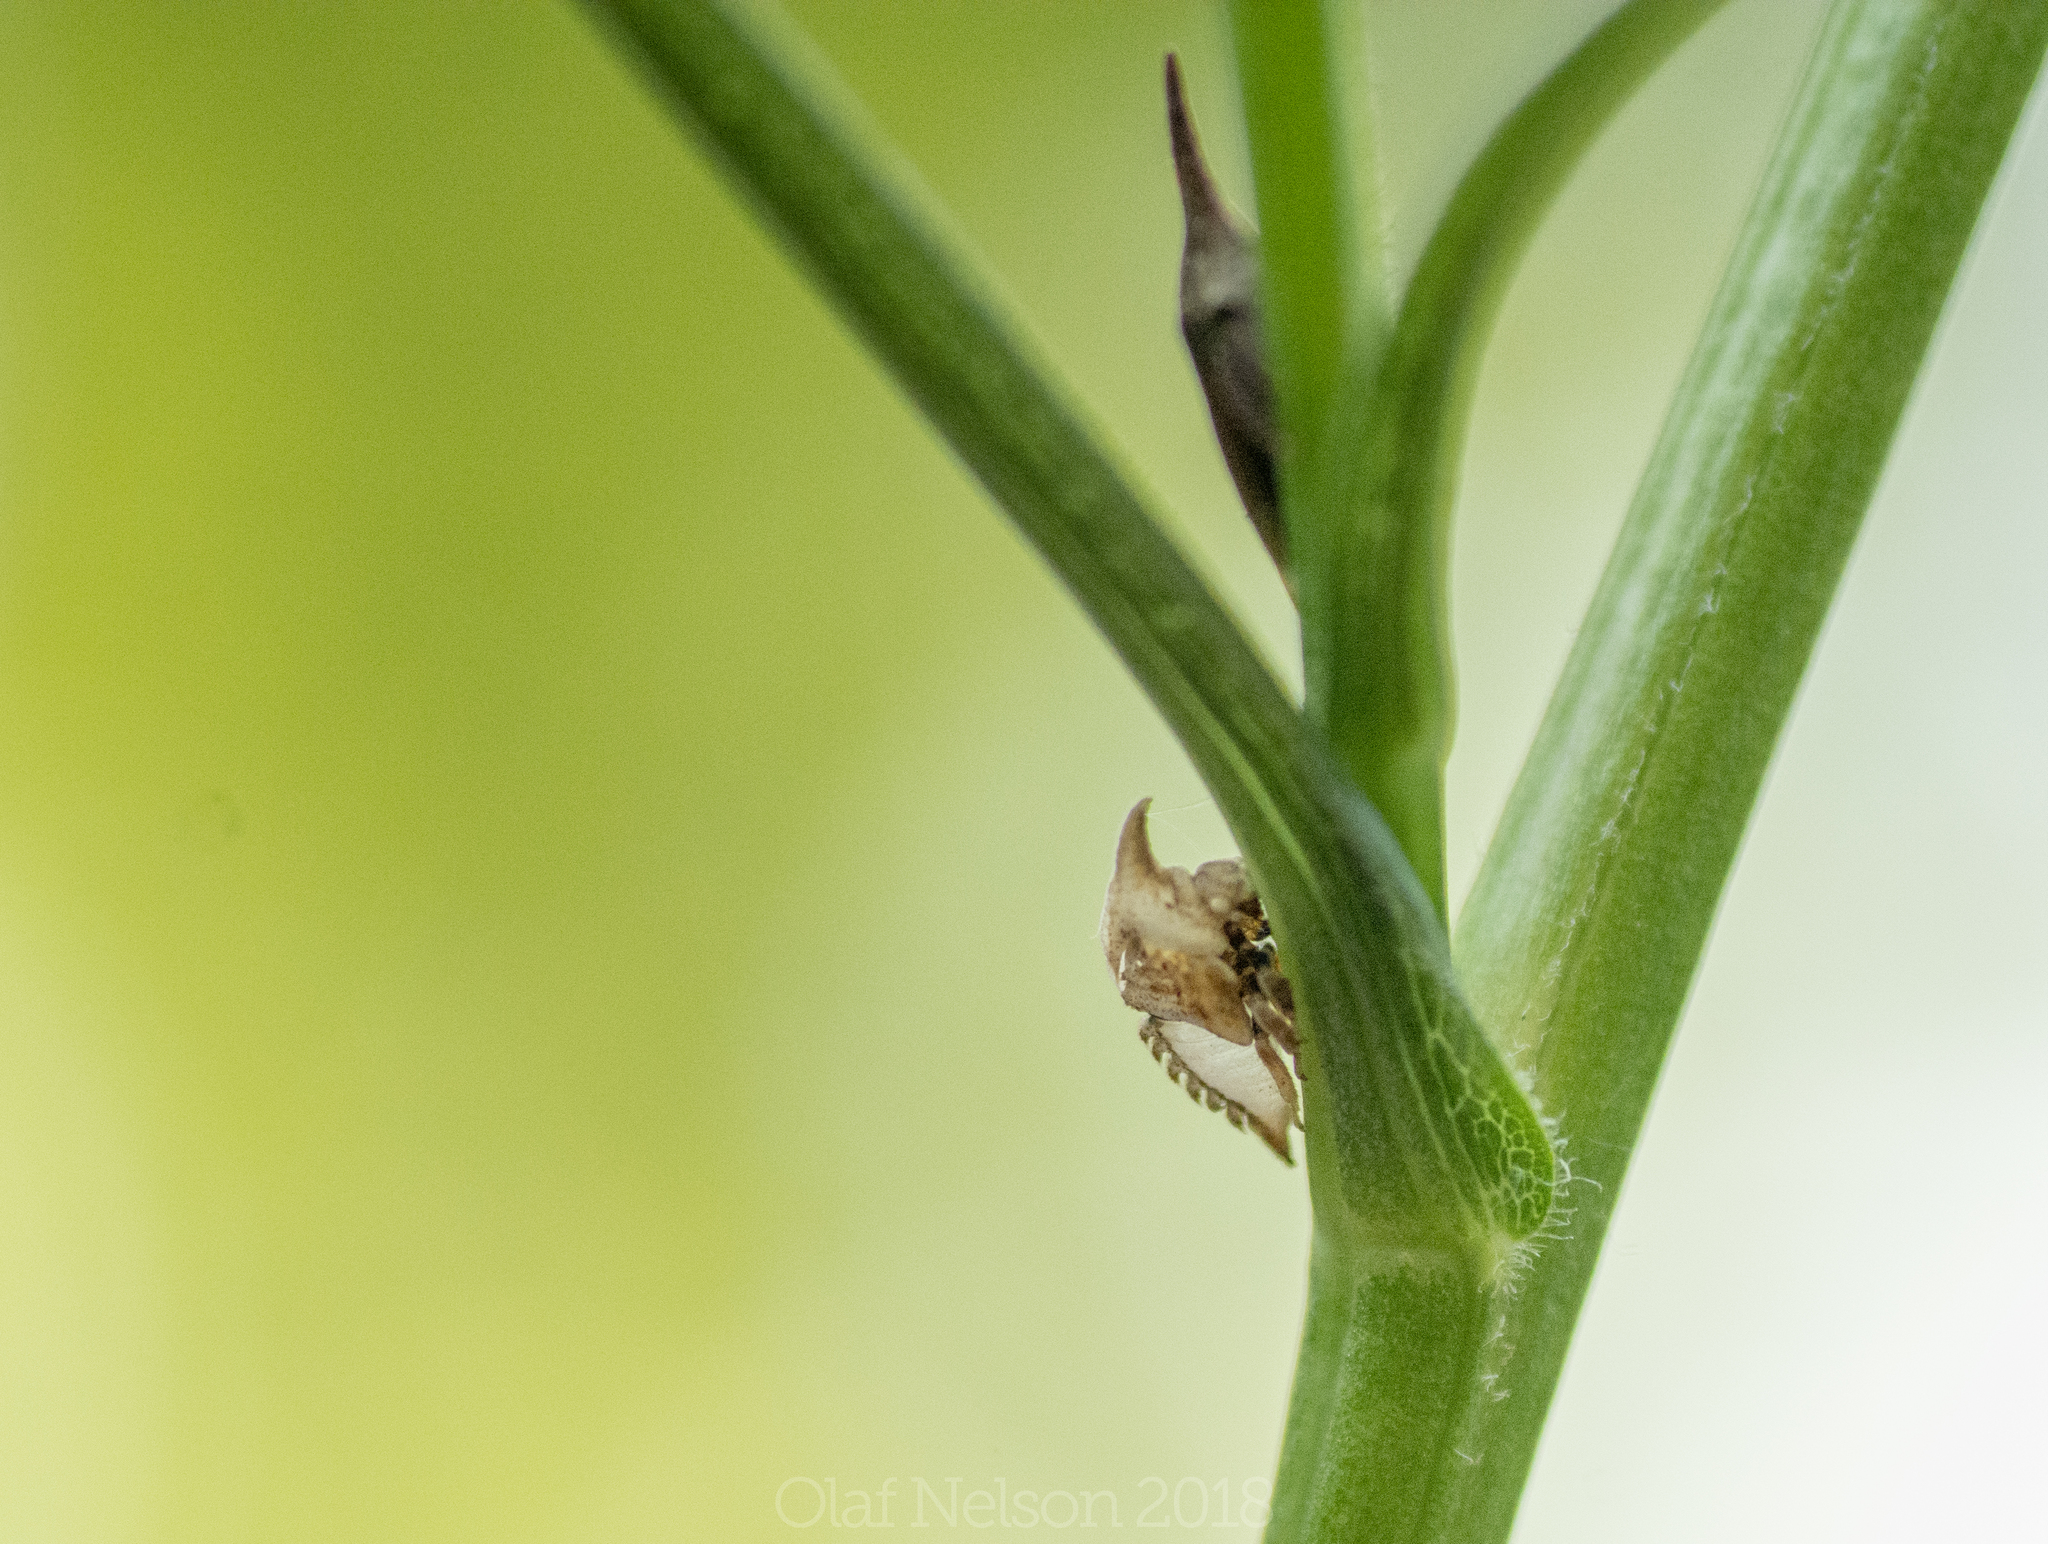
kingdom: Animalia
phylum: Arthropoda
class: Insecta
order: Hemiptera
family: Membracidae
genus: Enchenopa
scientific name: Enchenopa latipes
